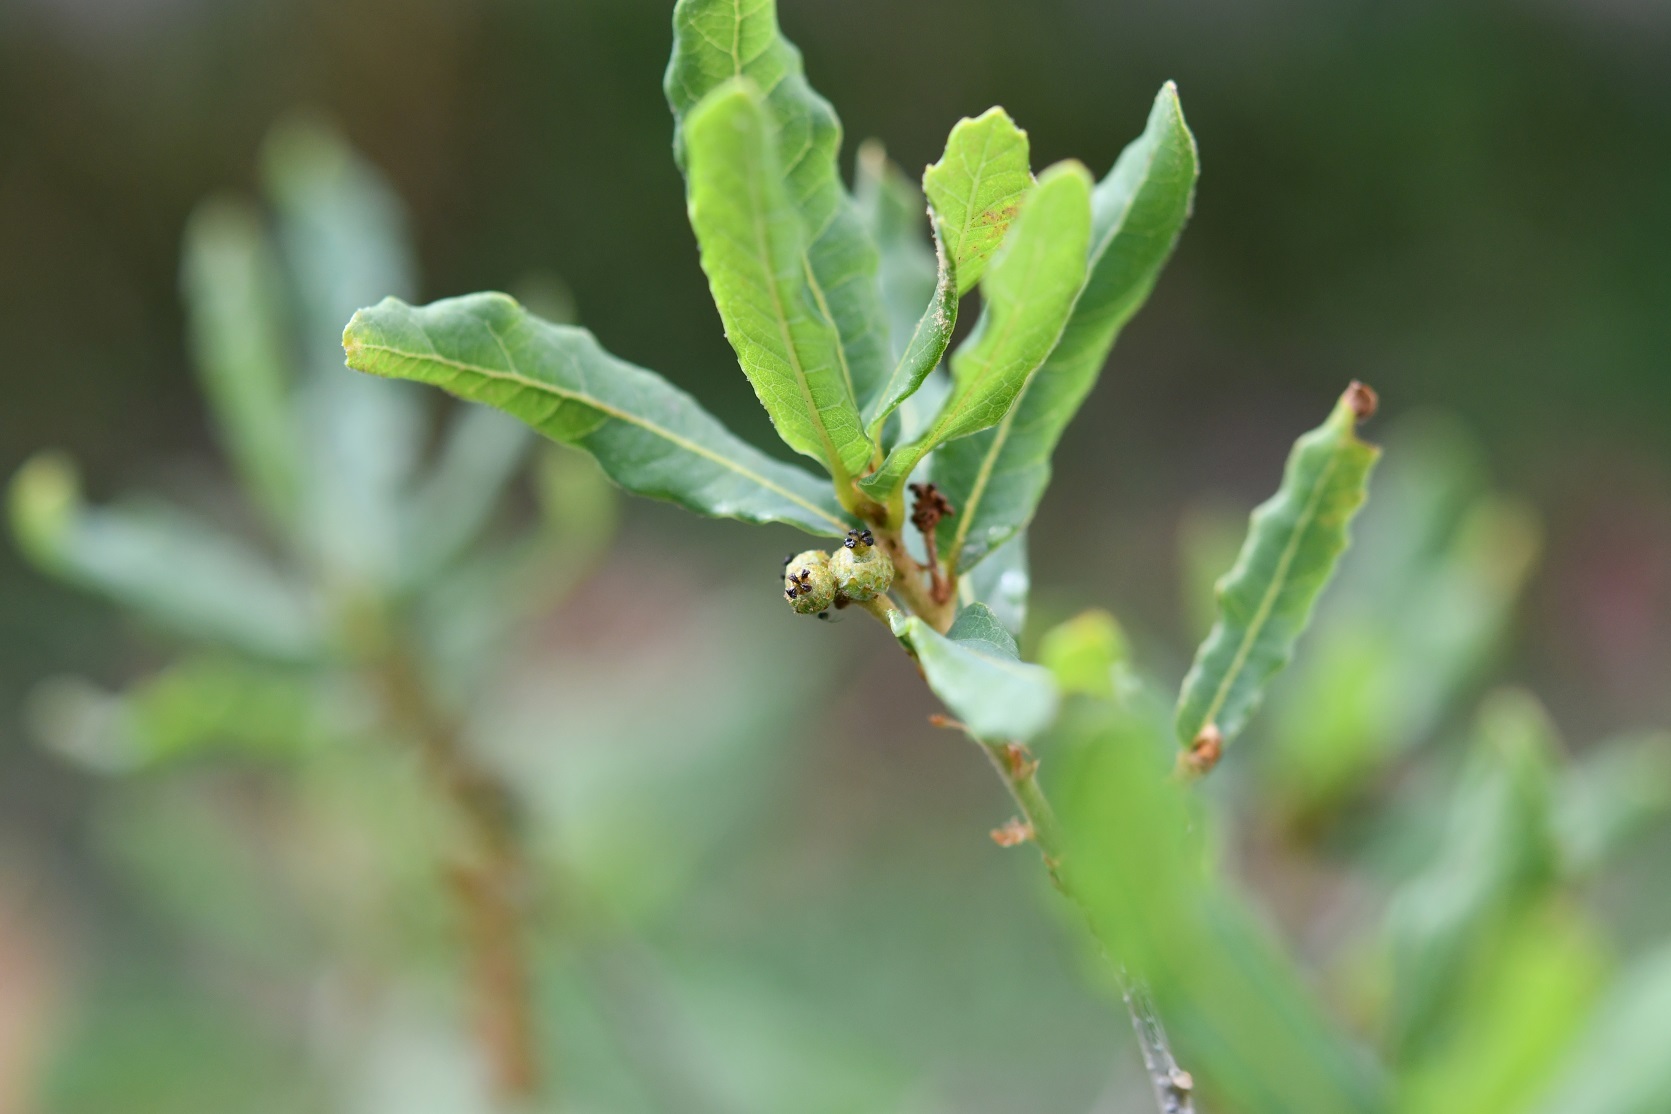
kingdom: Plantae
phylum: Tracheophyta
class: Magnoliopsida
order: Fagales
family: Fagaceae
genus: Quercus
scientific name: Quercus sebifera
